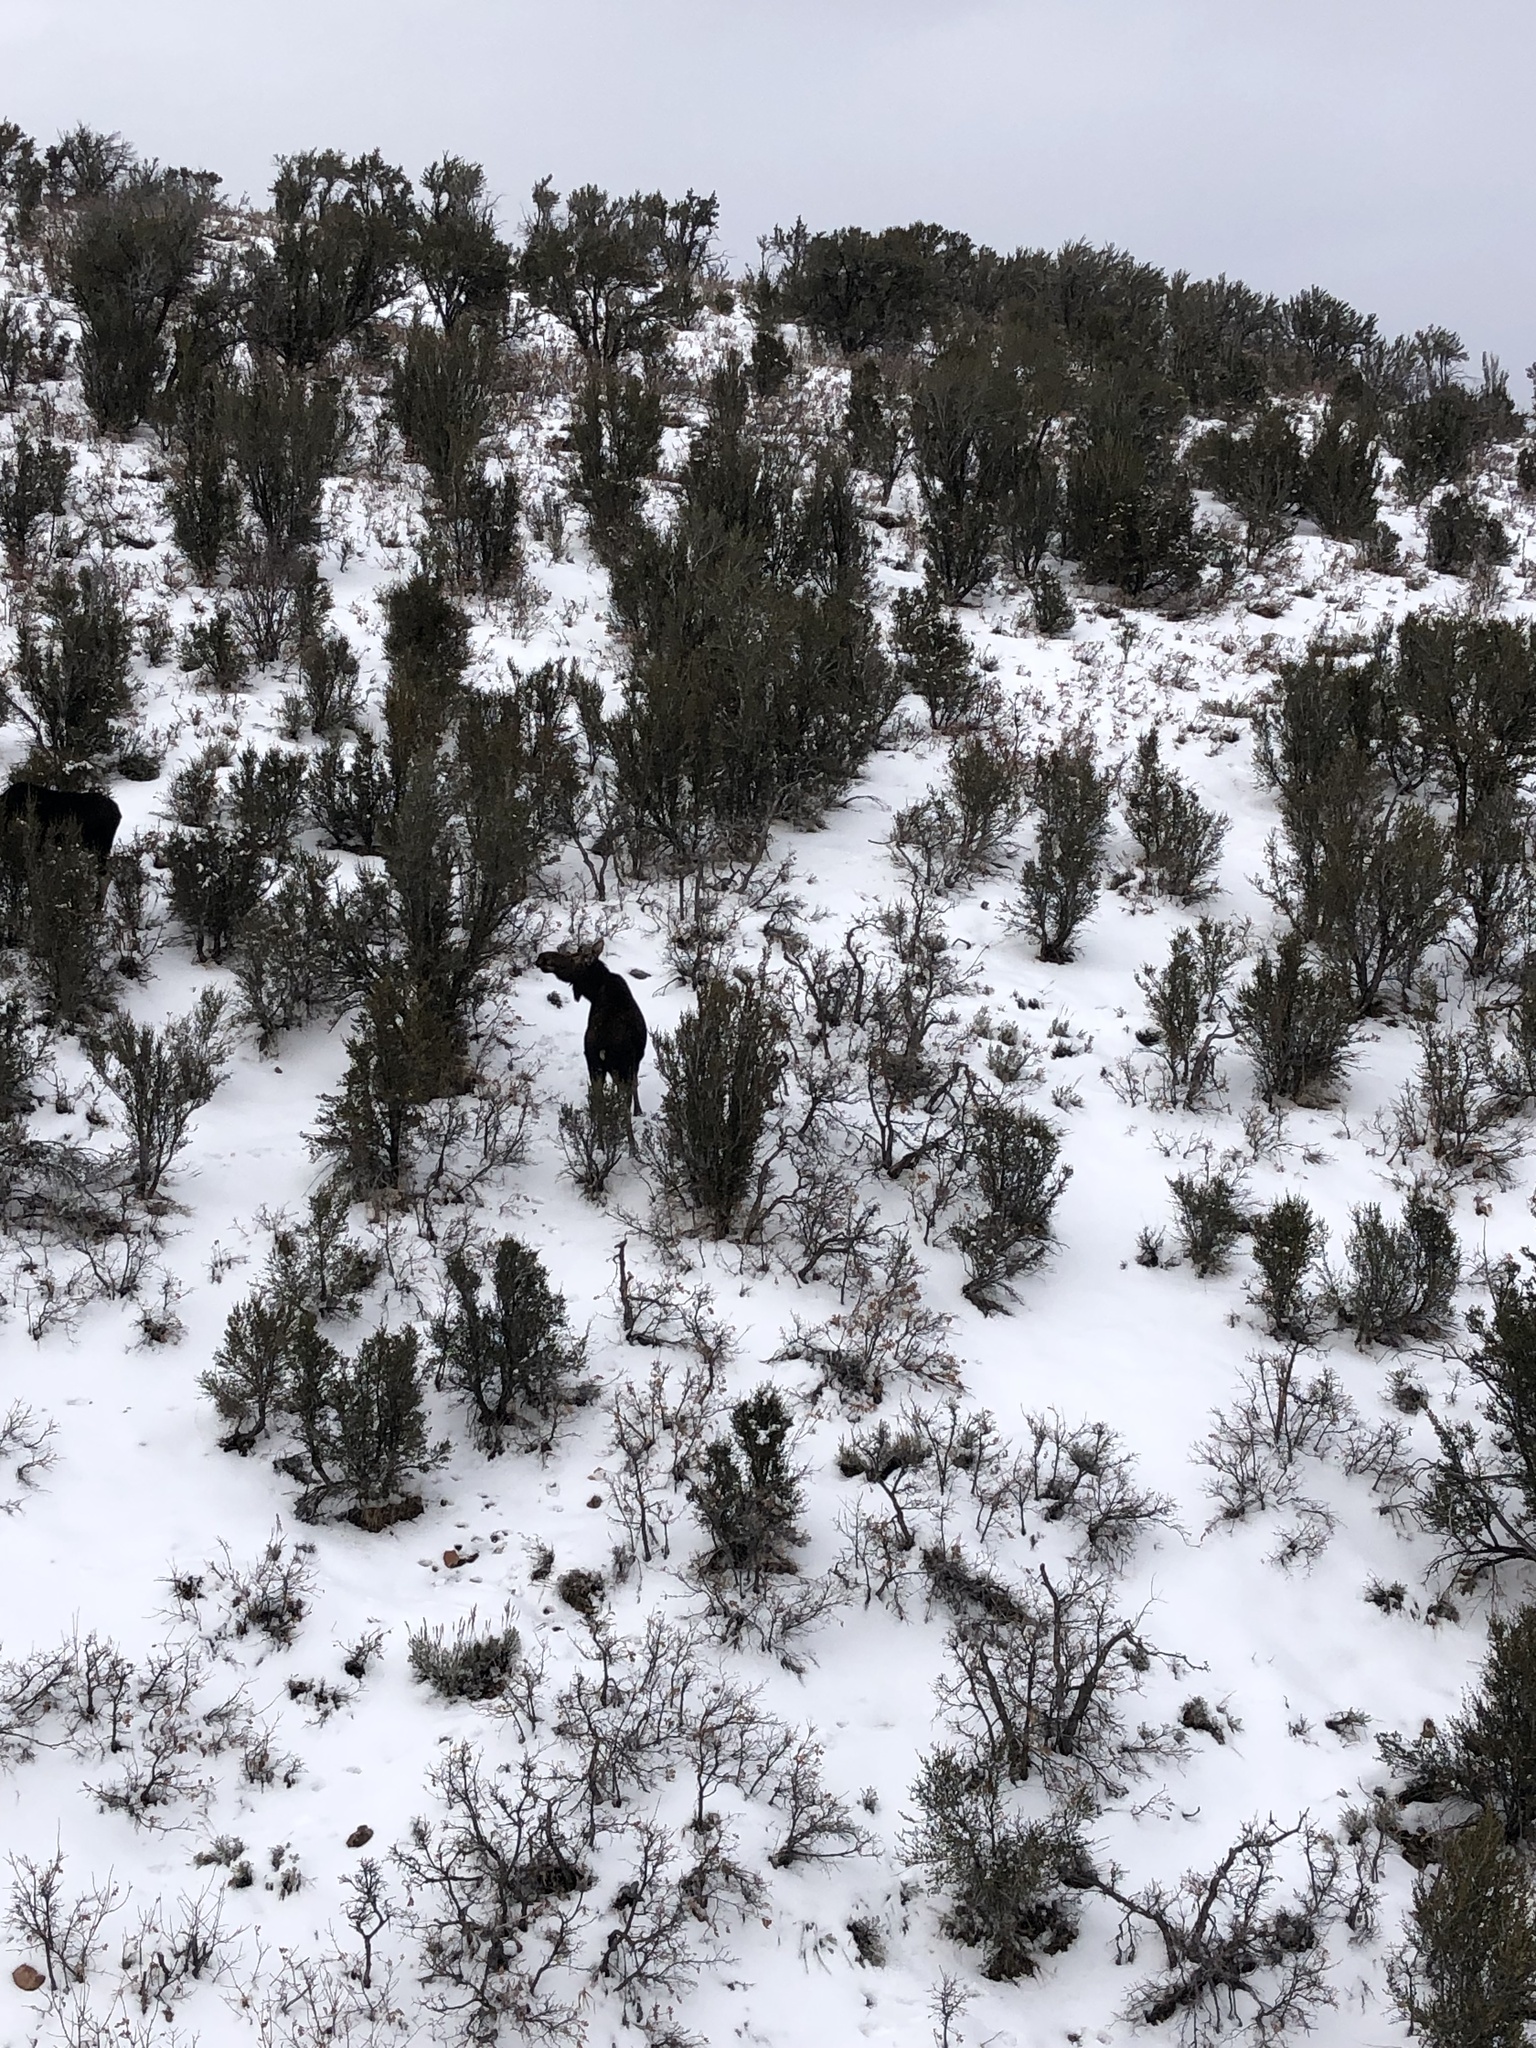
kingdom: Animalia
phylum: Chordata
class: Mammalia
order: Artiodactyla
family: Cervidae
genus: Alces
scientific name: Alces americanus
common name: Moose
